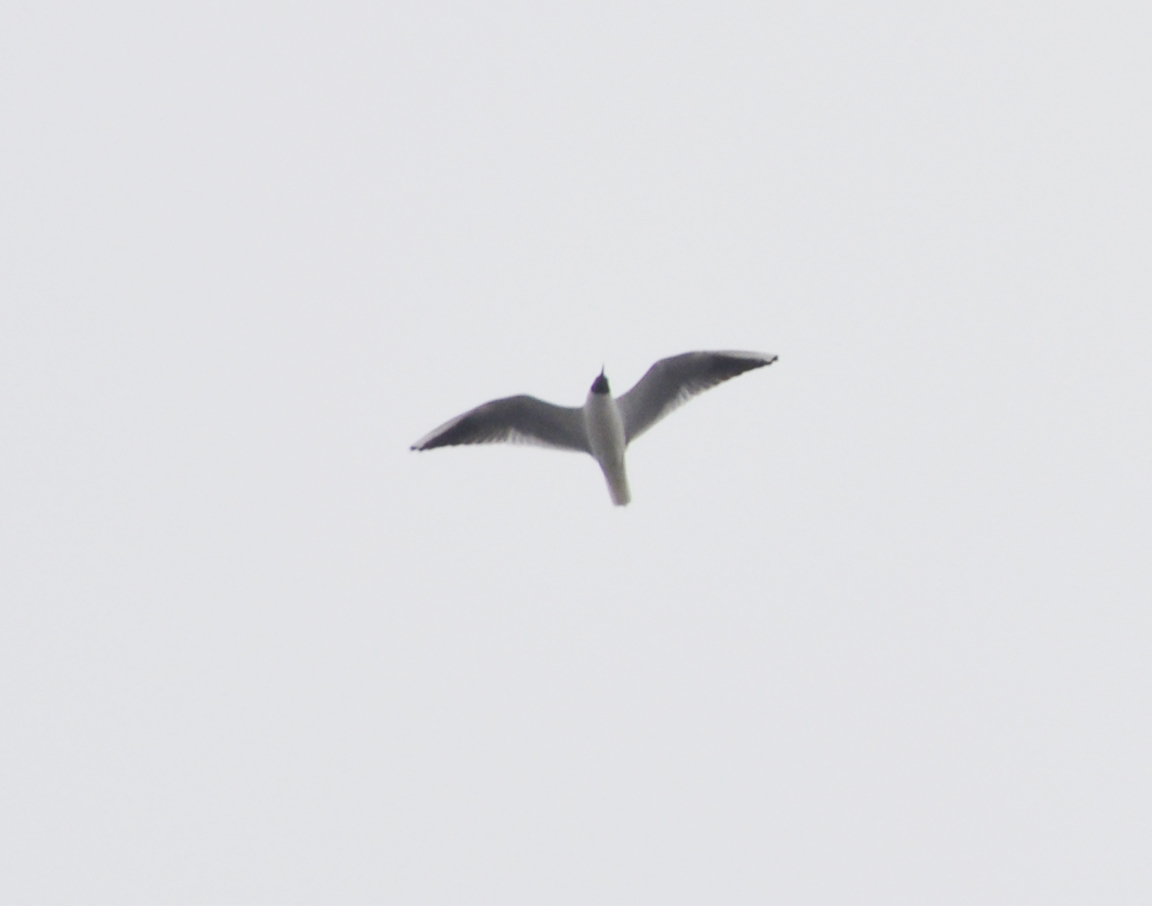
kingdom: Animalia
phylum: Chordata
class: Aves
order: Charadriiformes
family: Laridae
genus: Chroicocephalus
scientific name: Chroicocephalus ridibundus
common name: Black-headed gull
